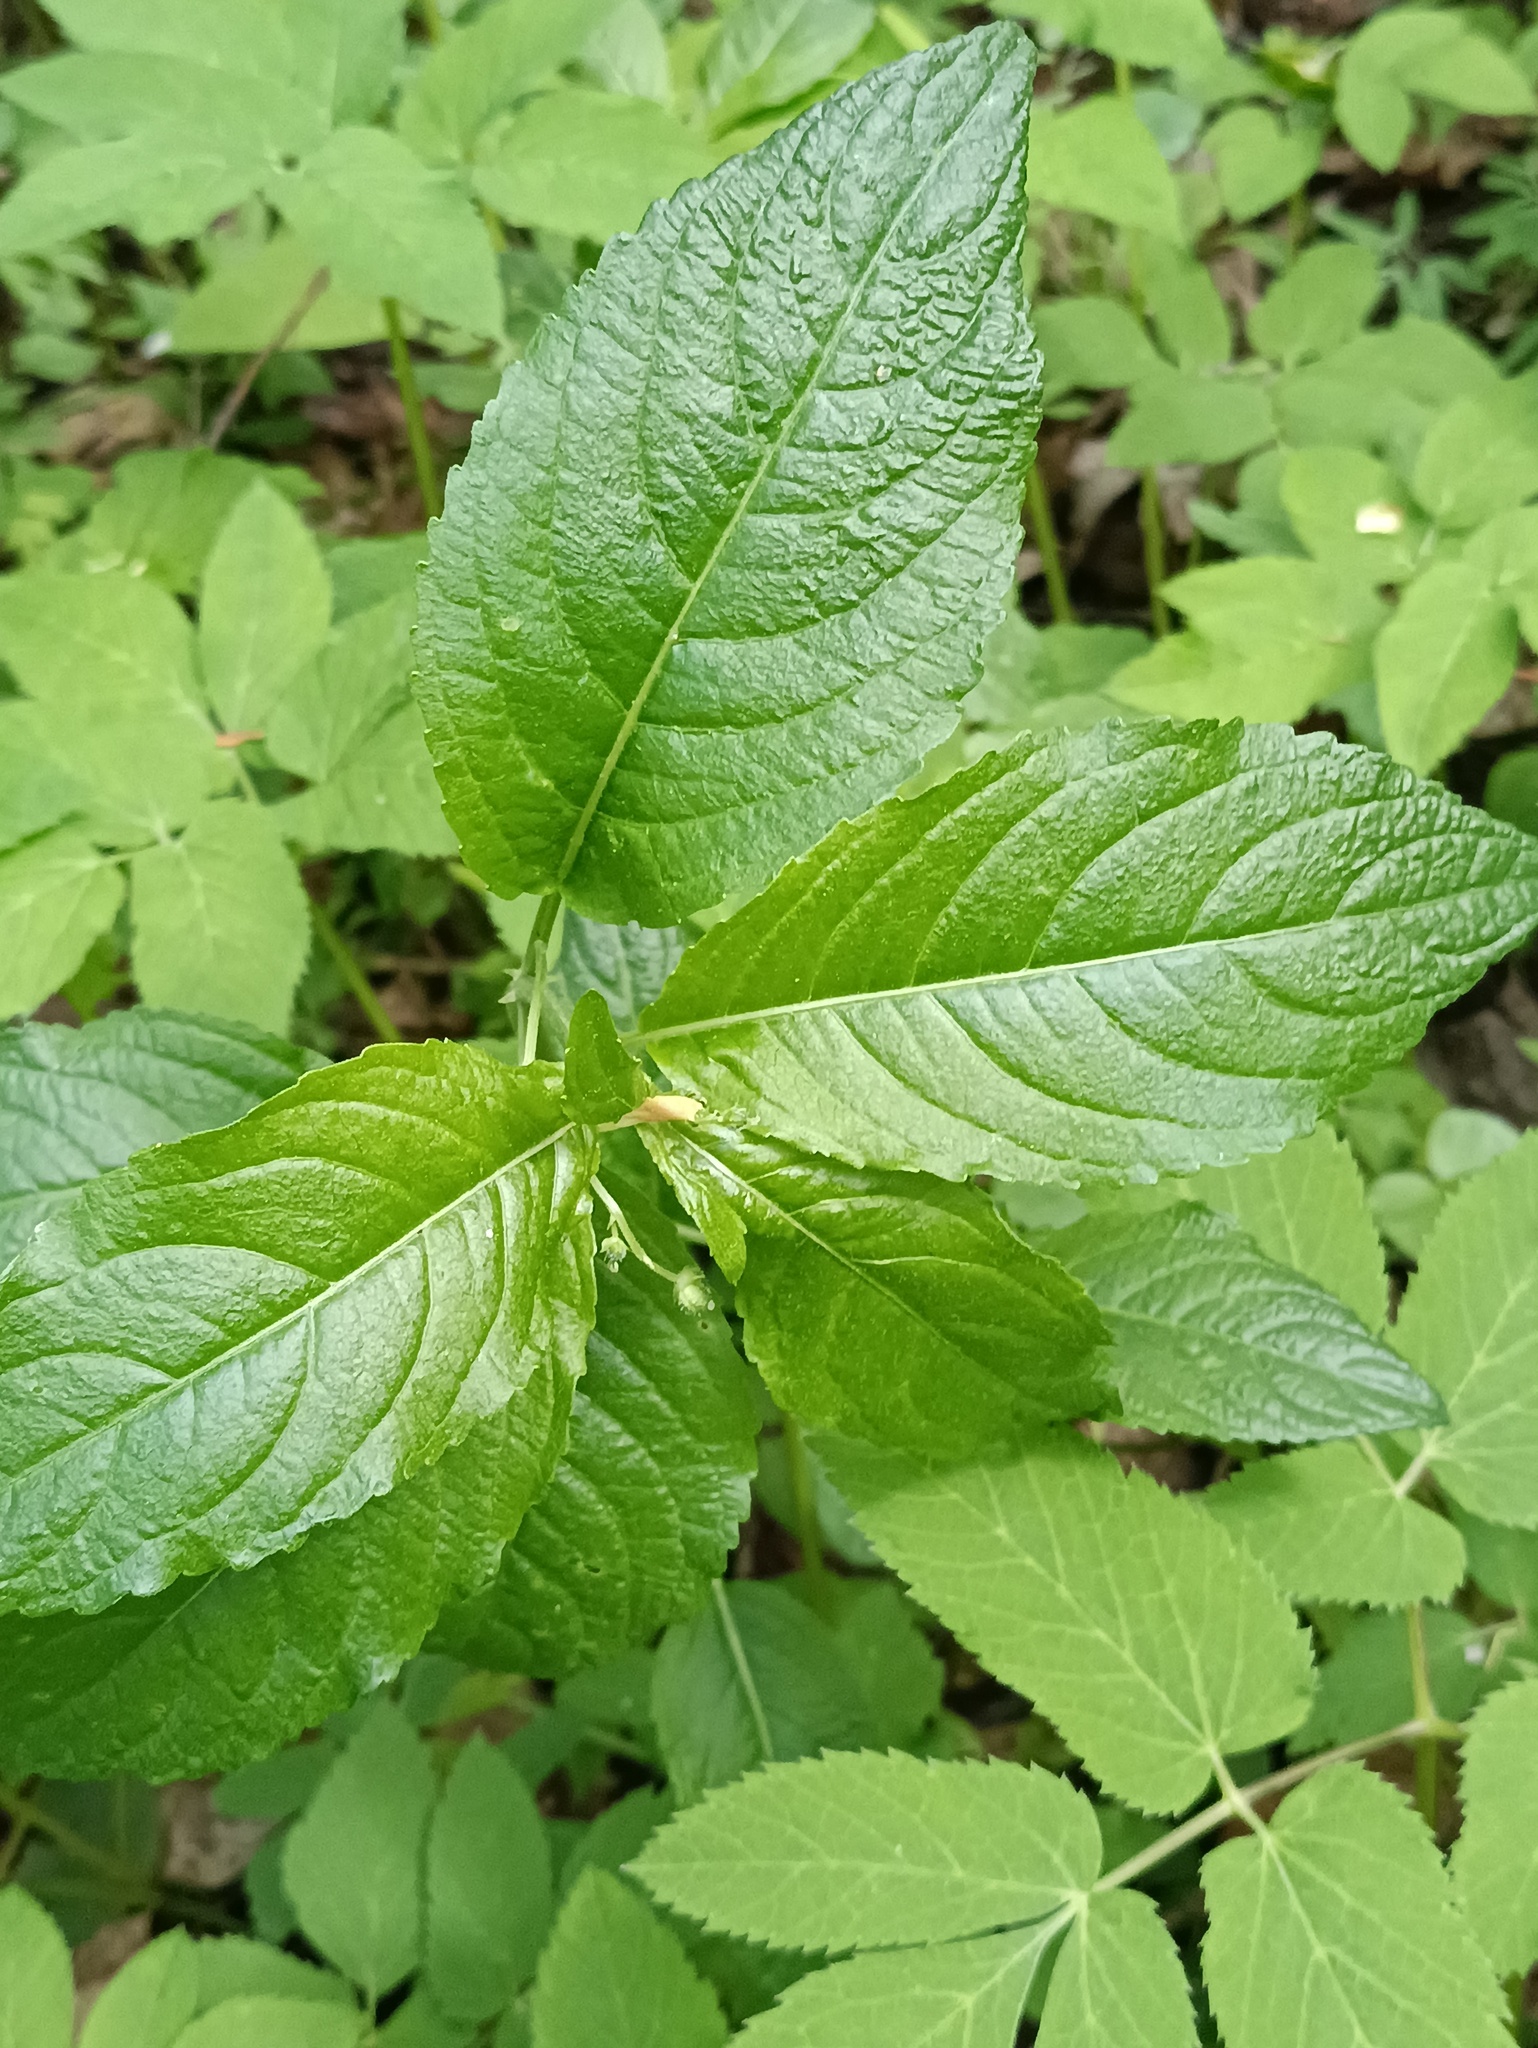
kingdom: Plantae
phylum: Tracheophyta
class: Magnoliopsida
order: Malpighiales
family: Euphorbiaceae
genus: Mercurialis
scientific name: Mercurialis perennis
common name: Dog mercury
